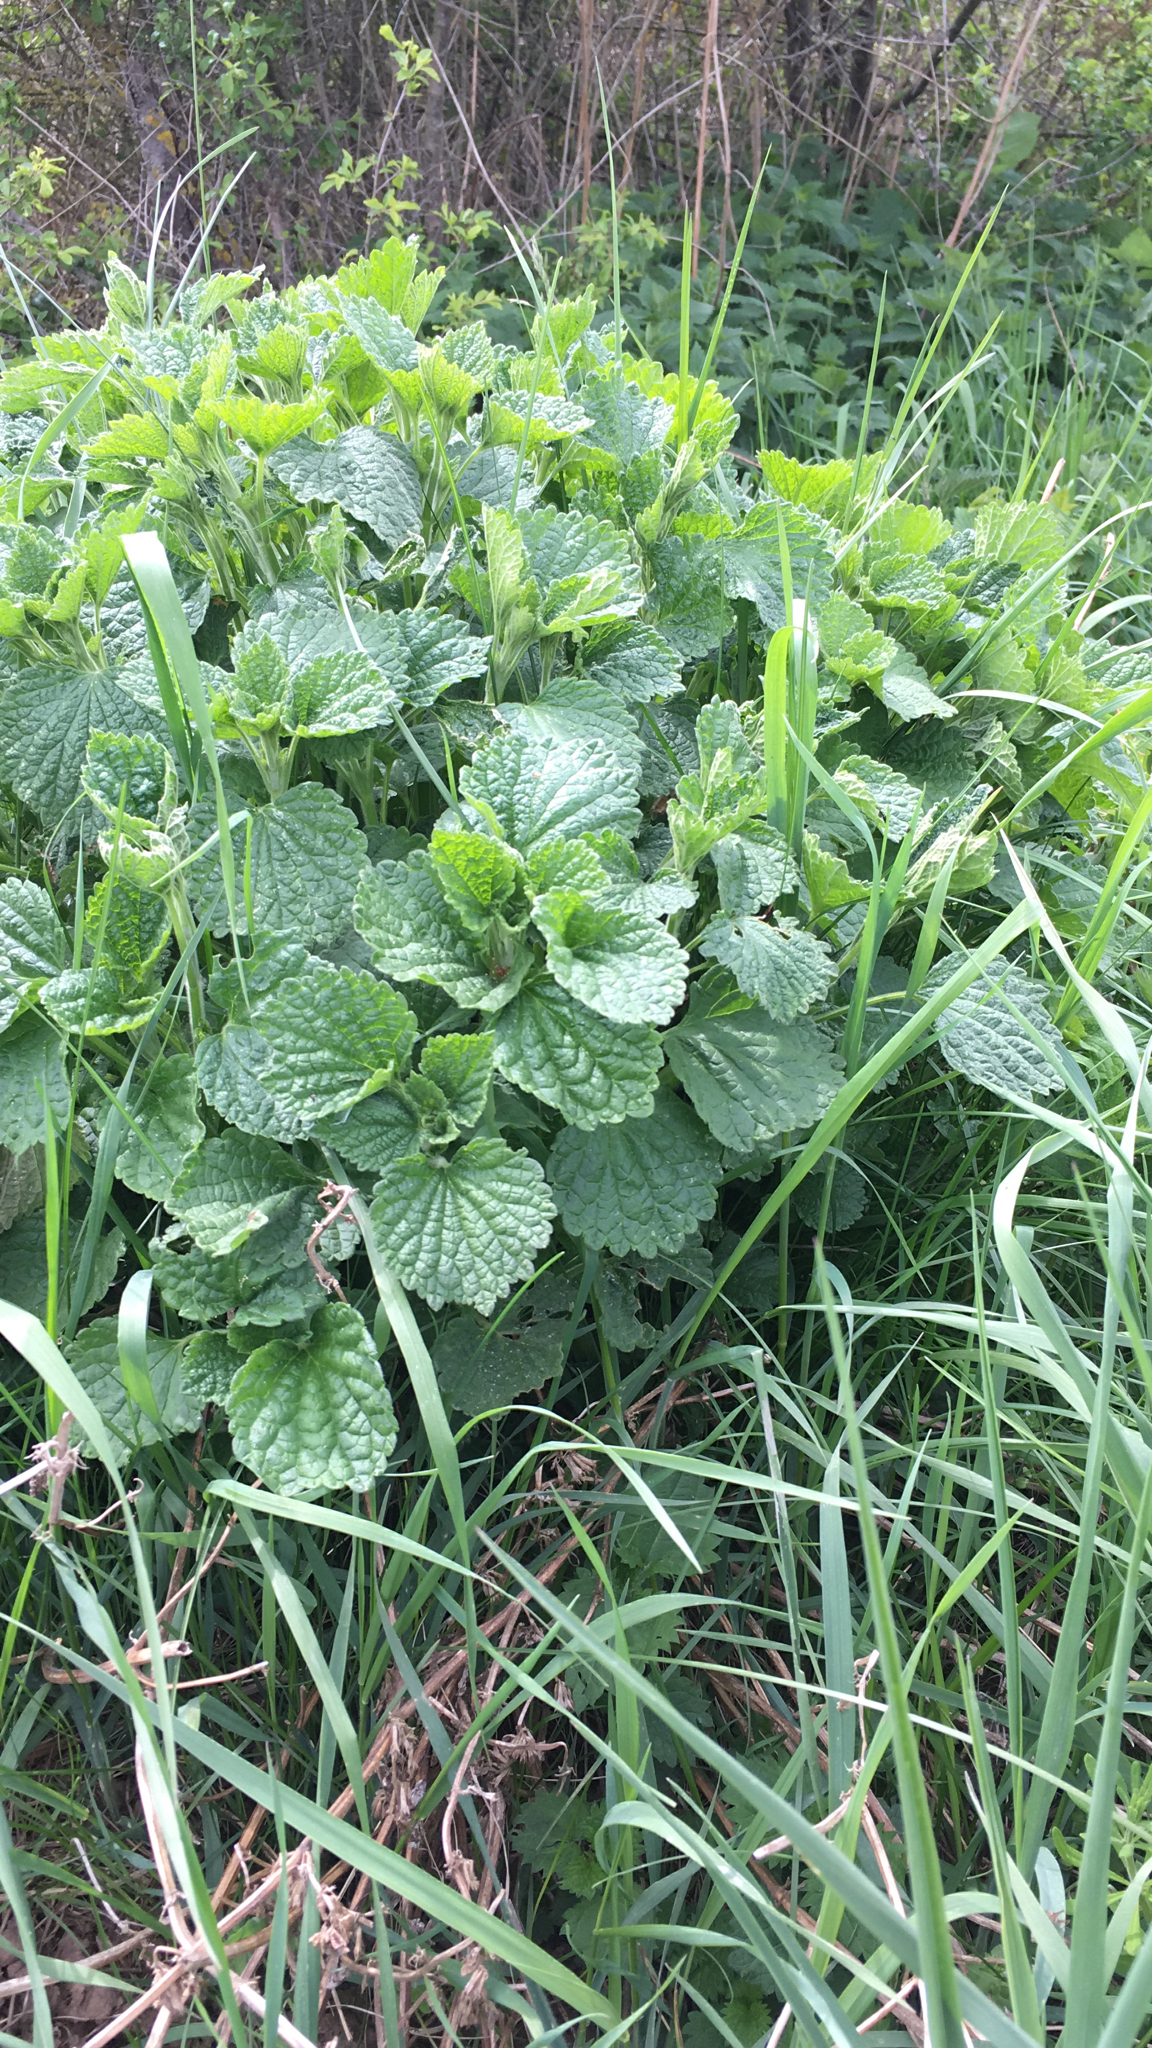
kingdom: Plantae
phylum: Tracheophyta
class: Magnoliopsida
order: Lamiales
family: Lamiaceae
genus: Ballota
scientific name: Ballota nigra
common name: Black horehound
